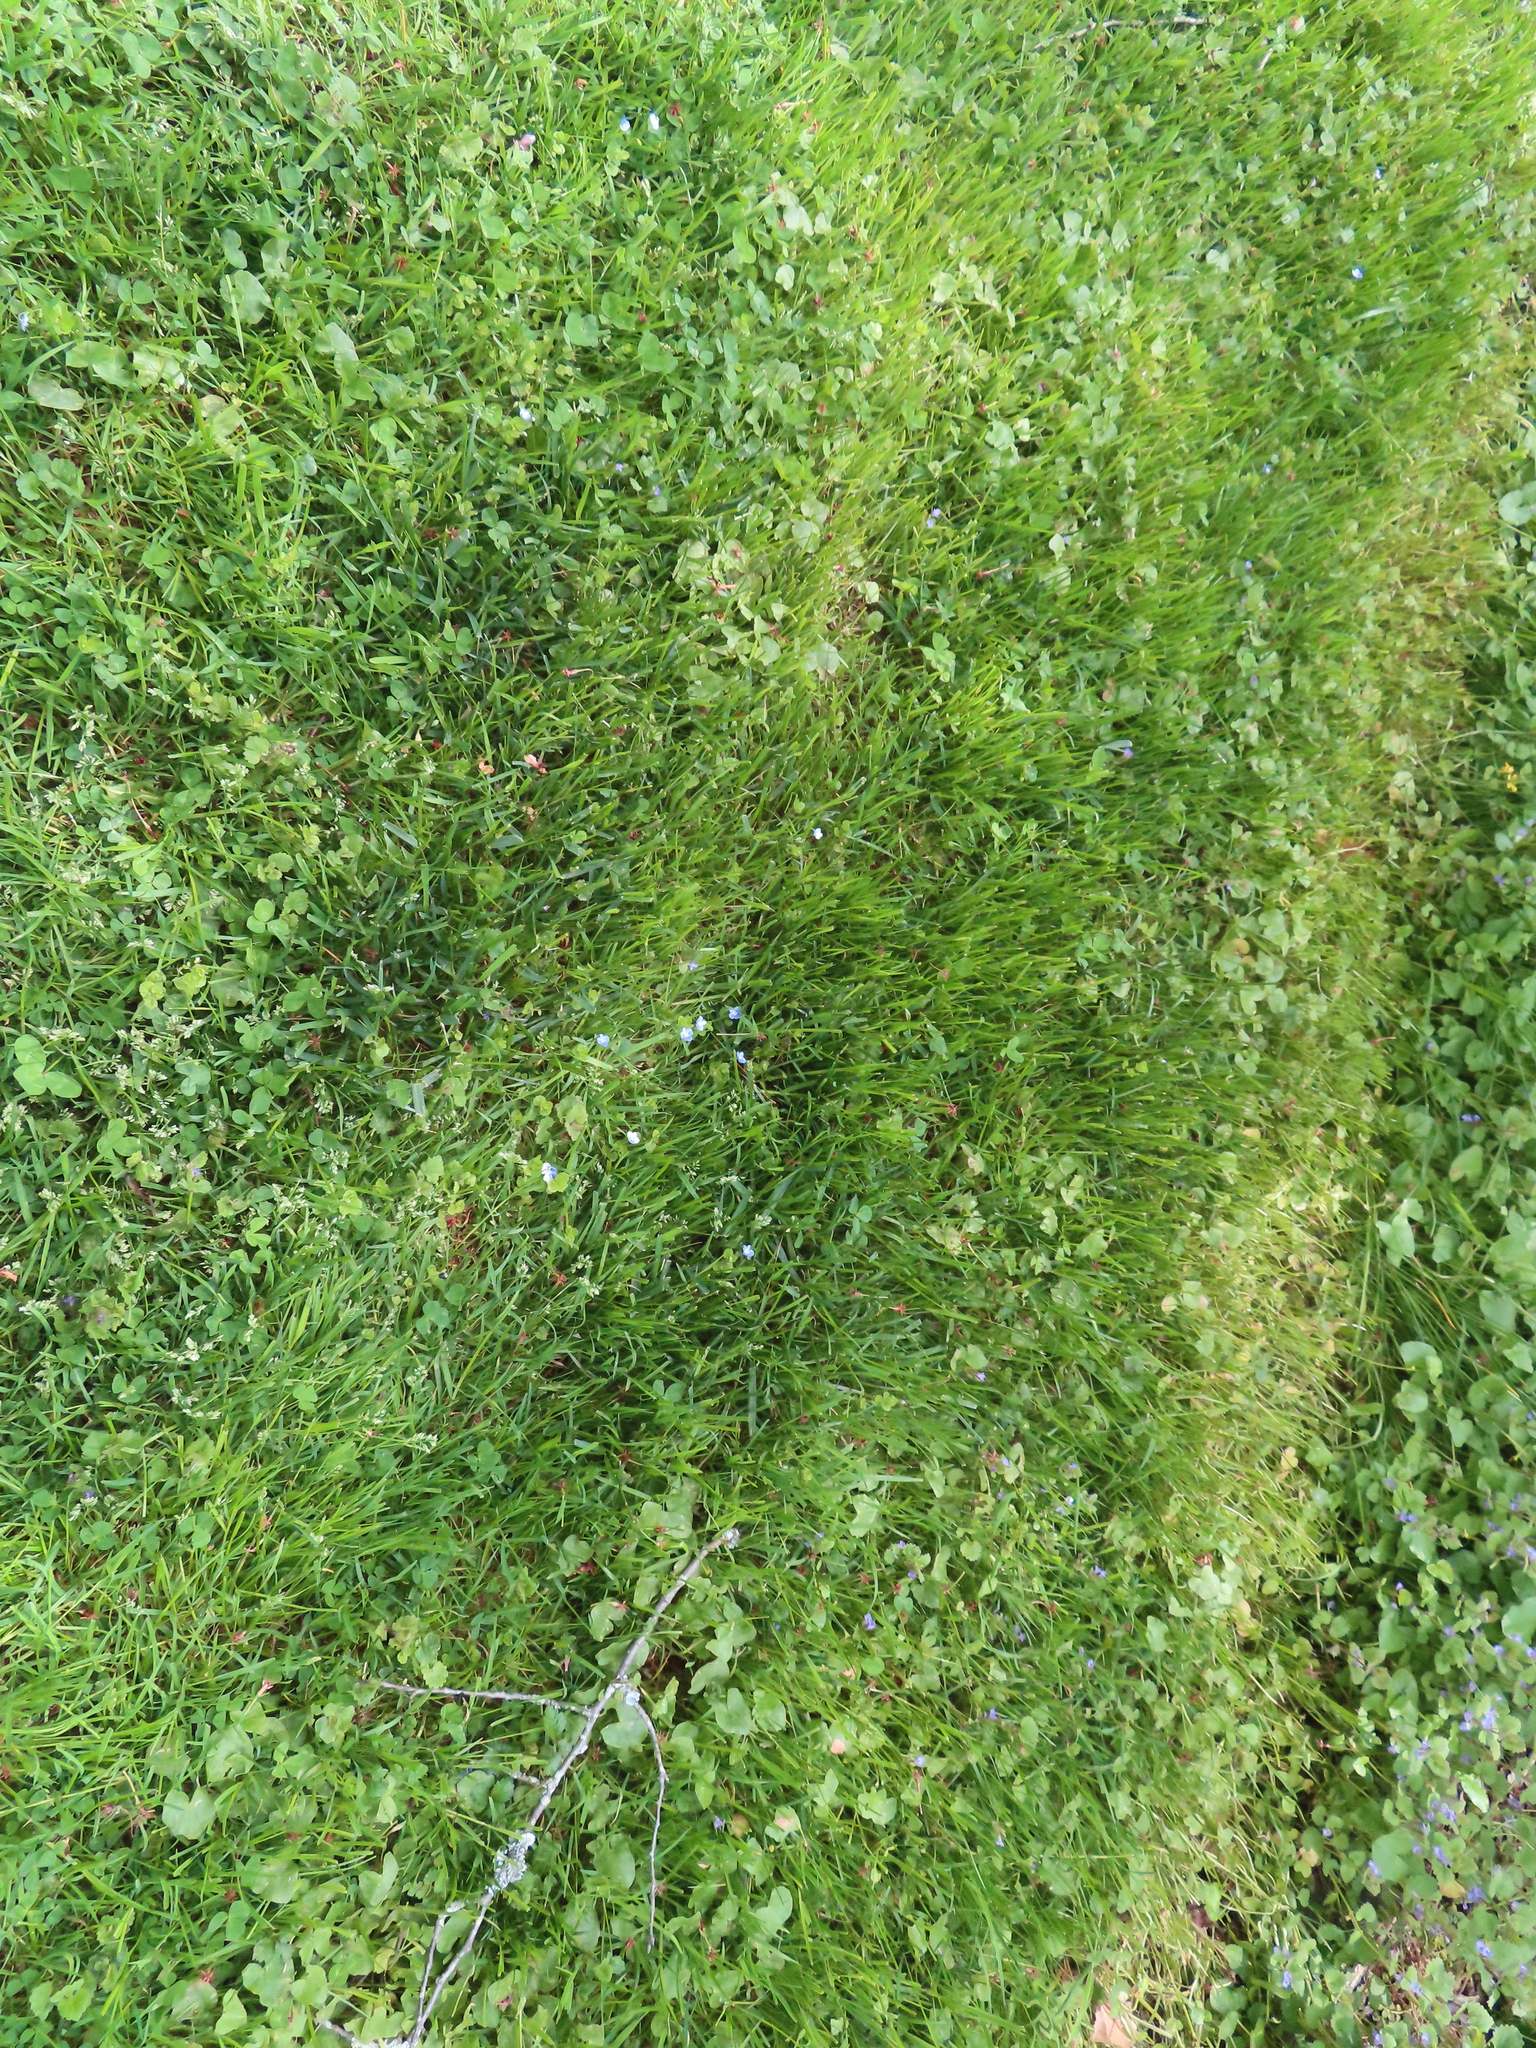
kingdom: Plantae
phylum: Tracheophyta
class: Magnoliopsida
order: Lamiales
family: Plantaginaceae
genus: Veronica
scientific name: Veronica filiformis
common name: Slender speedwell
